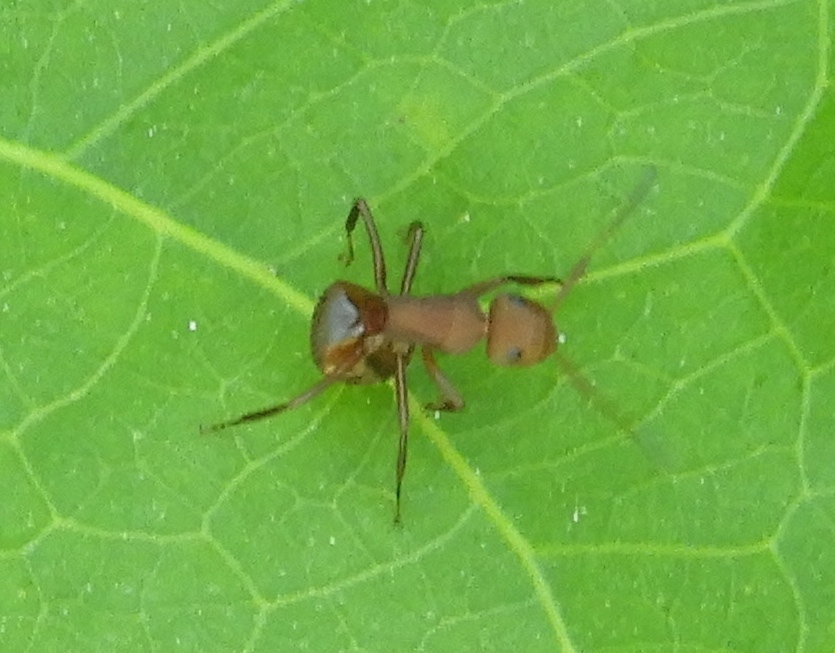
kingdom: Animalia
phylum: Arthropoda
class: Insecta
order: Hymenoptera
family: Formicidae
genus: Camponotus
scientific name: Camponotus rectangularis
